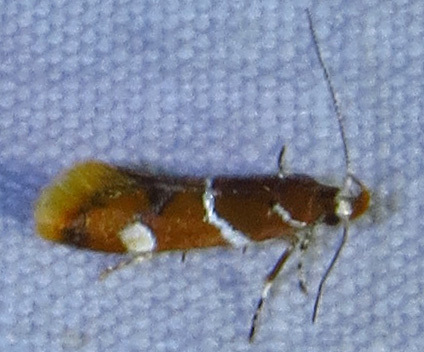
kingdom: Animalia
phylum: Arthropoda
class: Insecta
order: Lepidoptera
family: Oecophoridae
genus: Promalactis
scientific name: Promalactis suzukiella
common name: Moth
